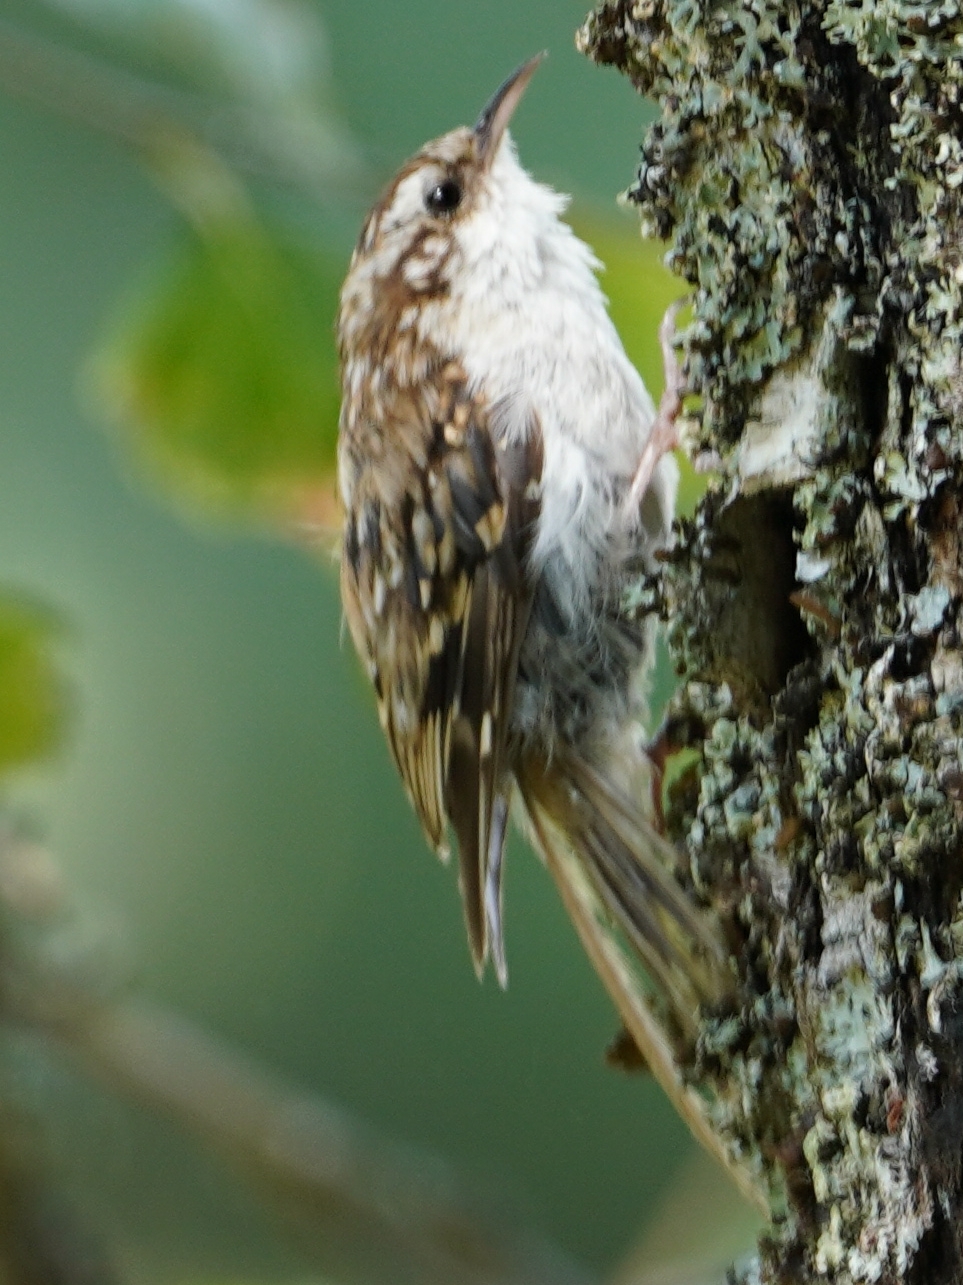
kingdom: Animalia
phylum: Chordata
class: Aves
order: Passeriformes
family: Certhiidae
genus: Certhia
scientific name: Certhia familiaris
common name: Eurasian treecreeper
